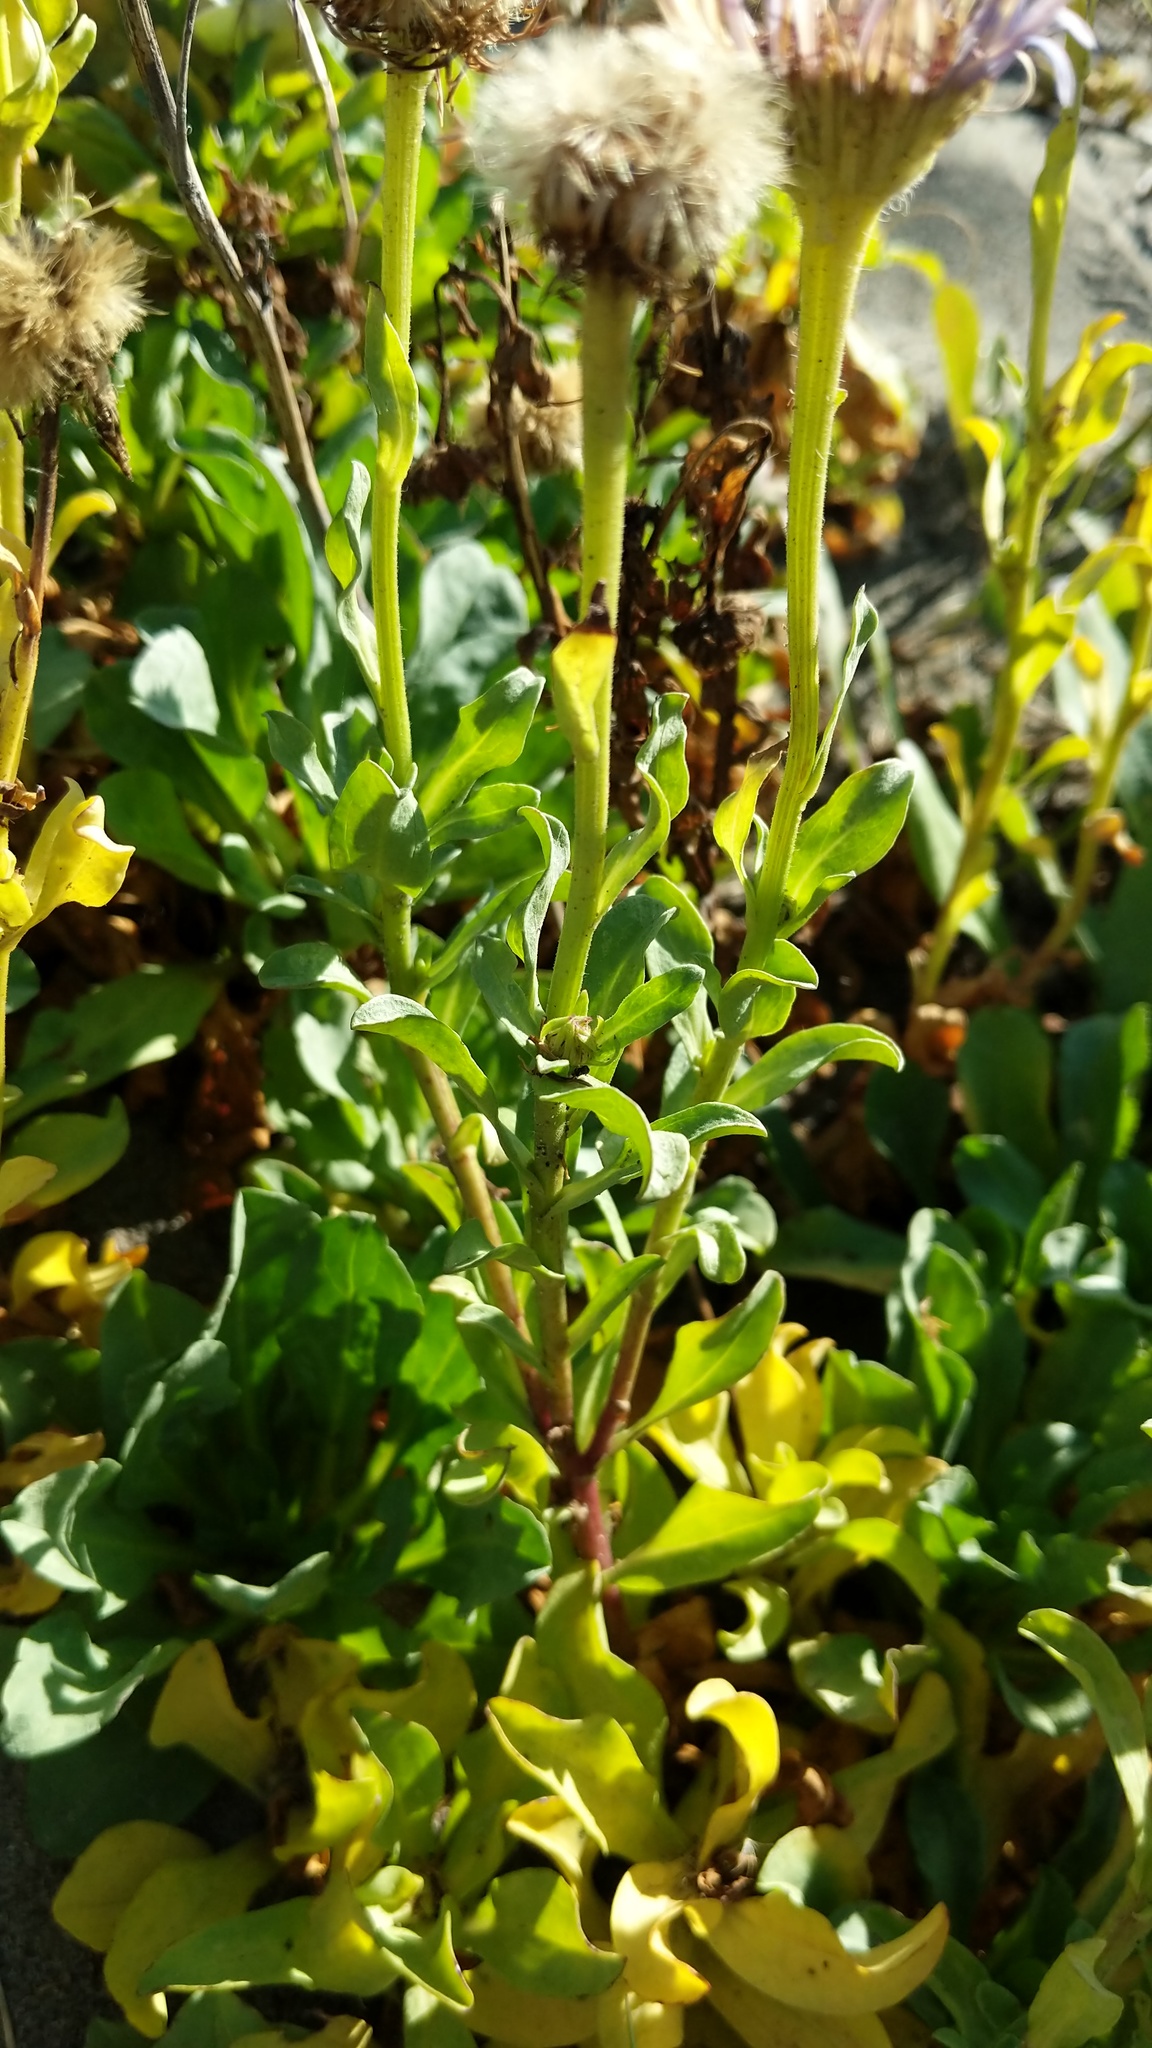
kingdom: Plantae
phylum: Tracheophyta
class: Magnoliopsida
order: Asterales
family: Asteraceae
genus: Erigeron
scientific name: Erigeron glaucus
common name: Seaside daisy
